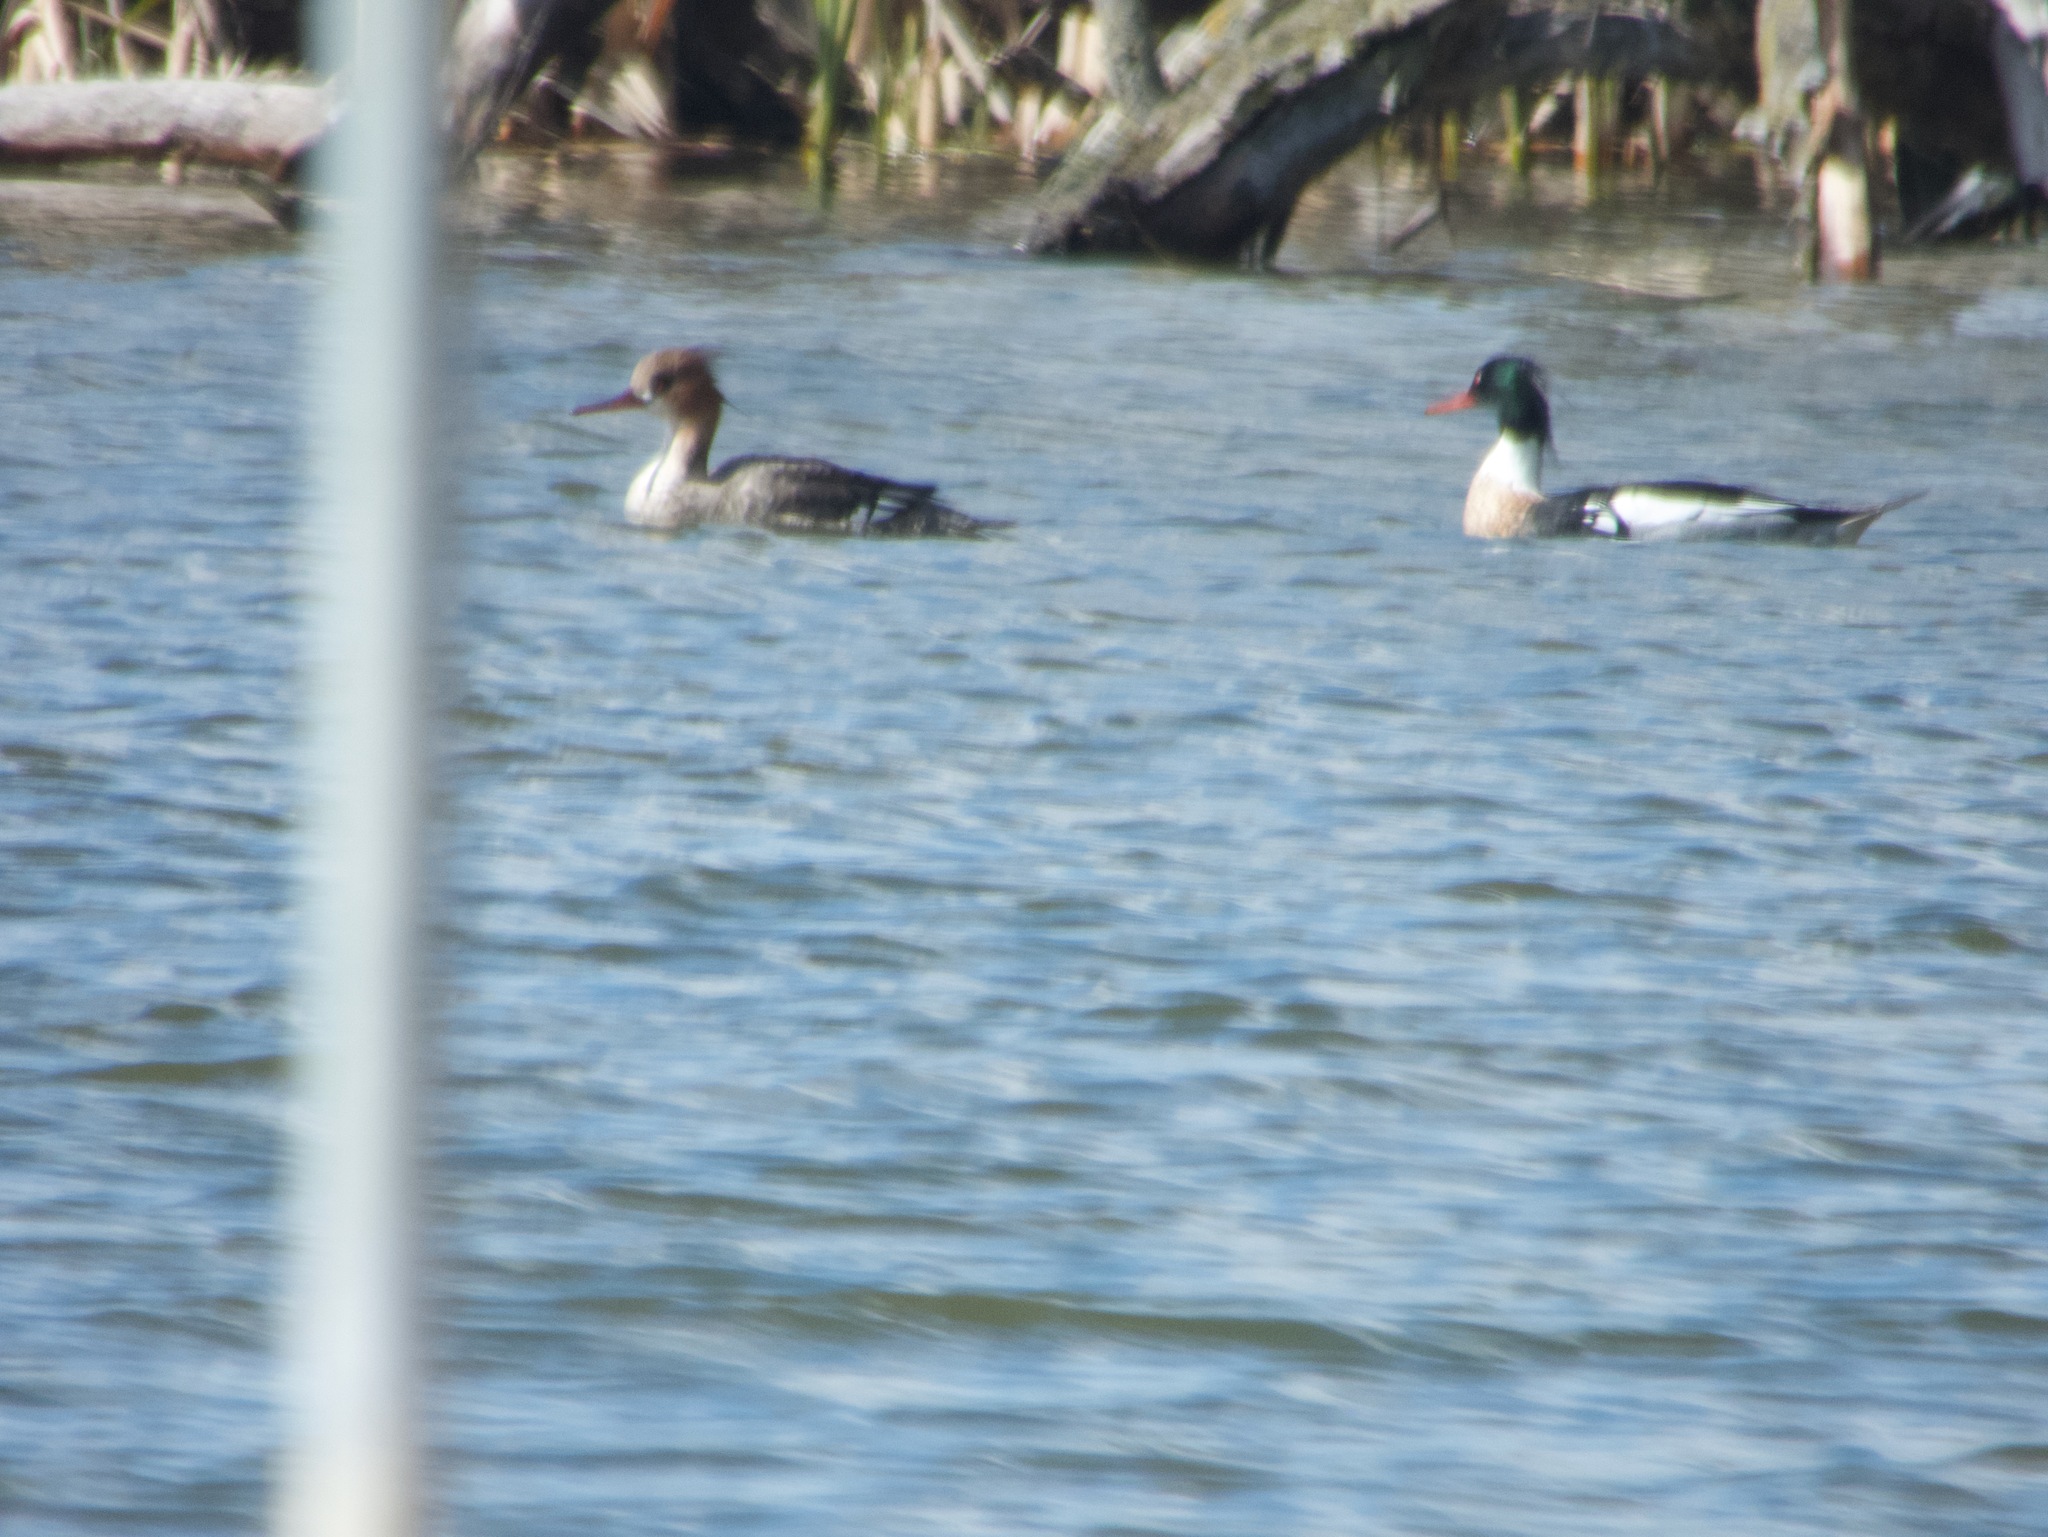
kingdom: Animalia
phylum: Chordata
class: Aves
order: Anseriformes
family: Anatidae
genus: Mergus
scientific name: Mergus serrator
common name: Red-breasted merganser
